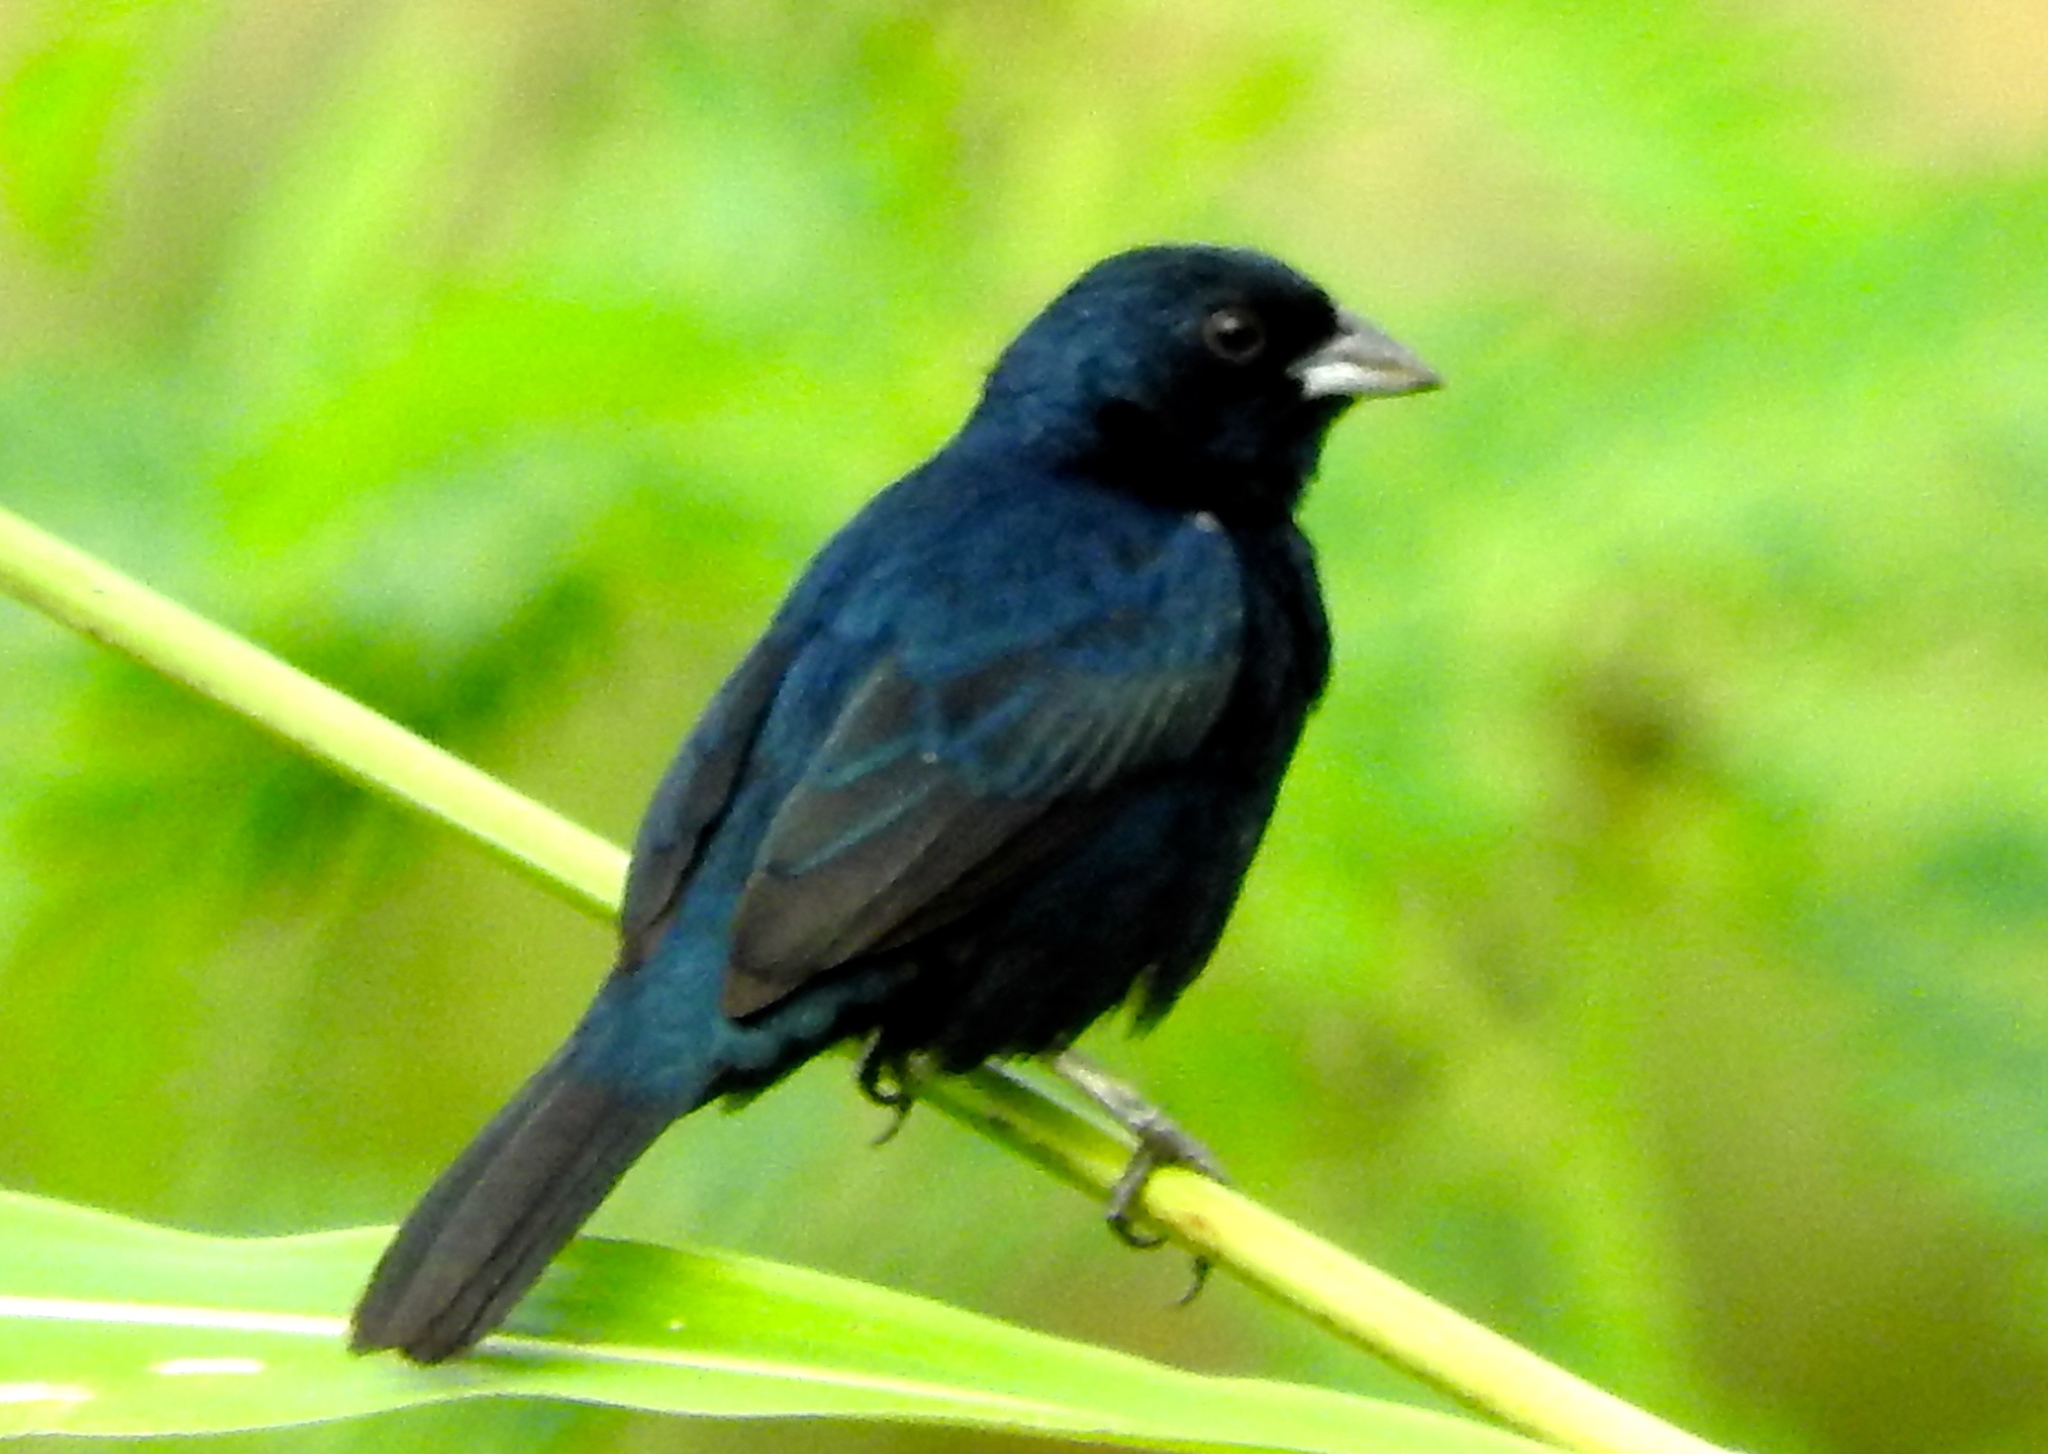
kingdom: Animalia
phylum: Chordata
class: Aves
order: Passeriformes
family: Thraupidae
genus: Volatinia
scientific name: Volatinia jacarina
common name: Blue-black grassquit
